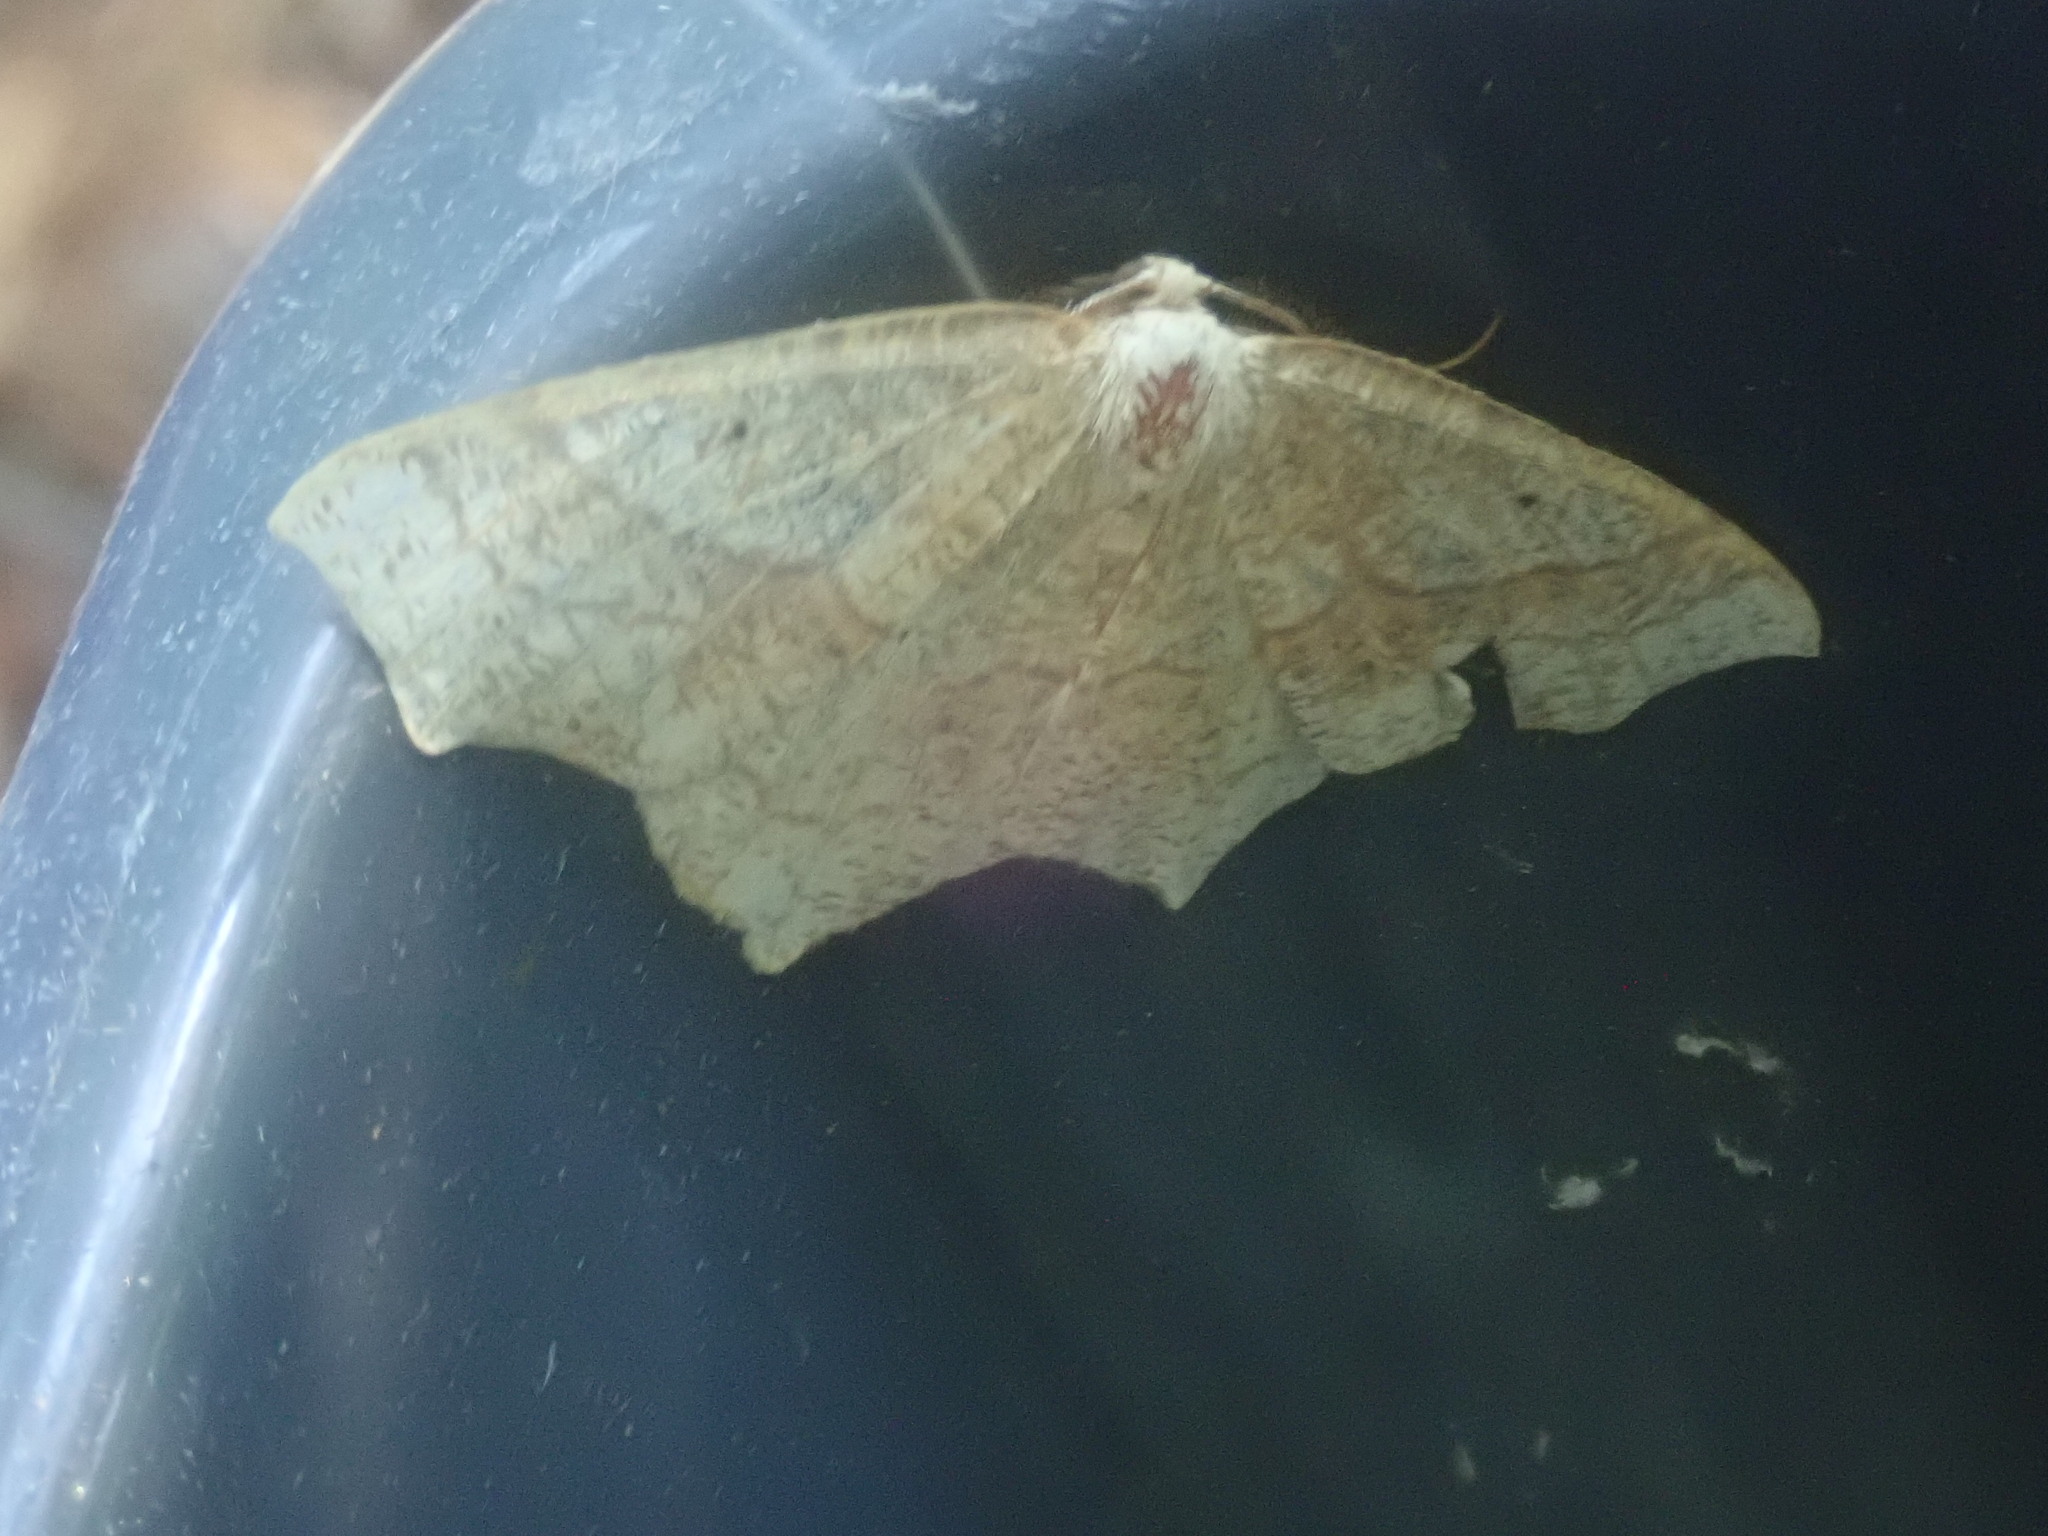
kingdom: Animalia
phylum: Arthropoda
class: Insecta
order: Lepidoptera
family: Geometridae
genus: Besma
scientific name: Besma quercivoraria
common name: Oak besma
